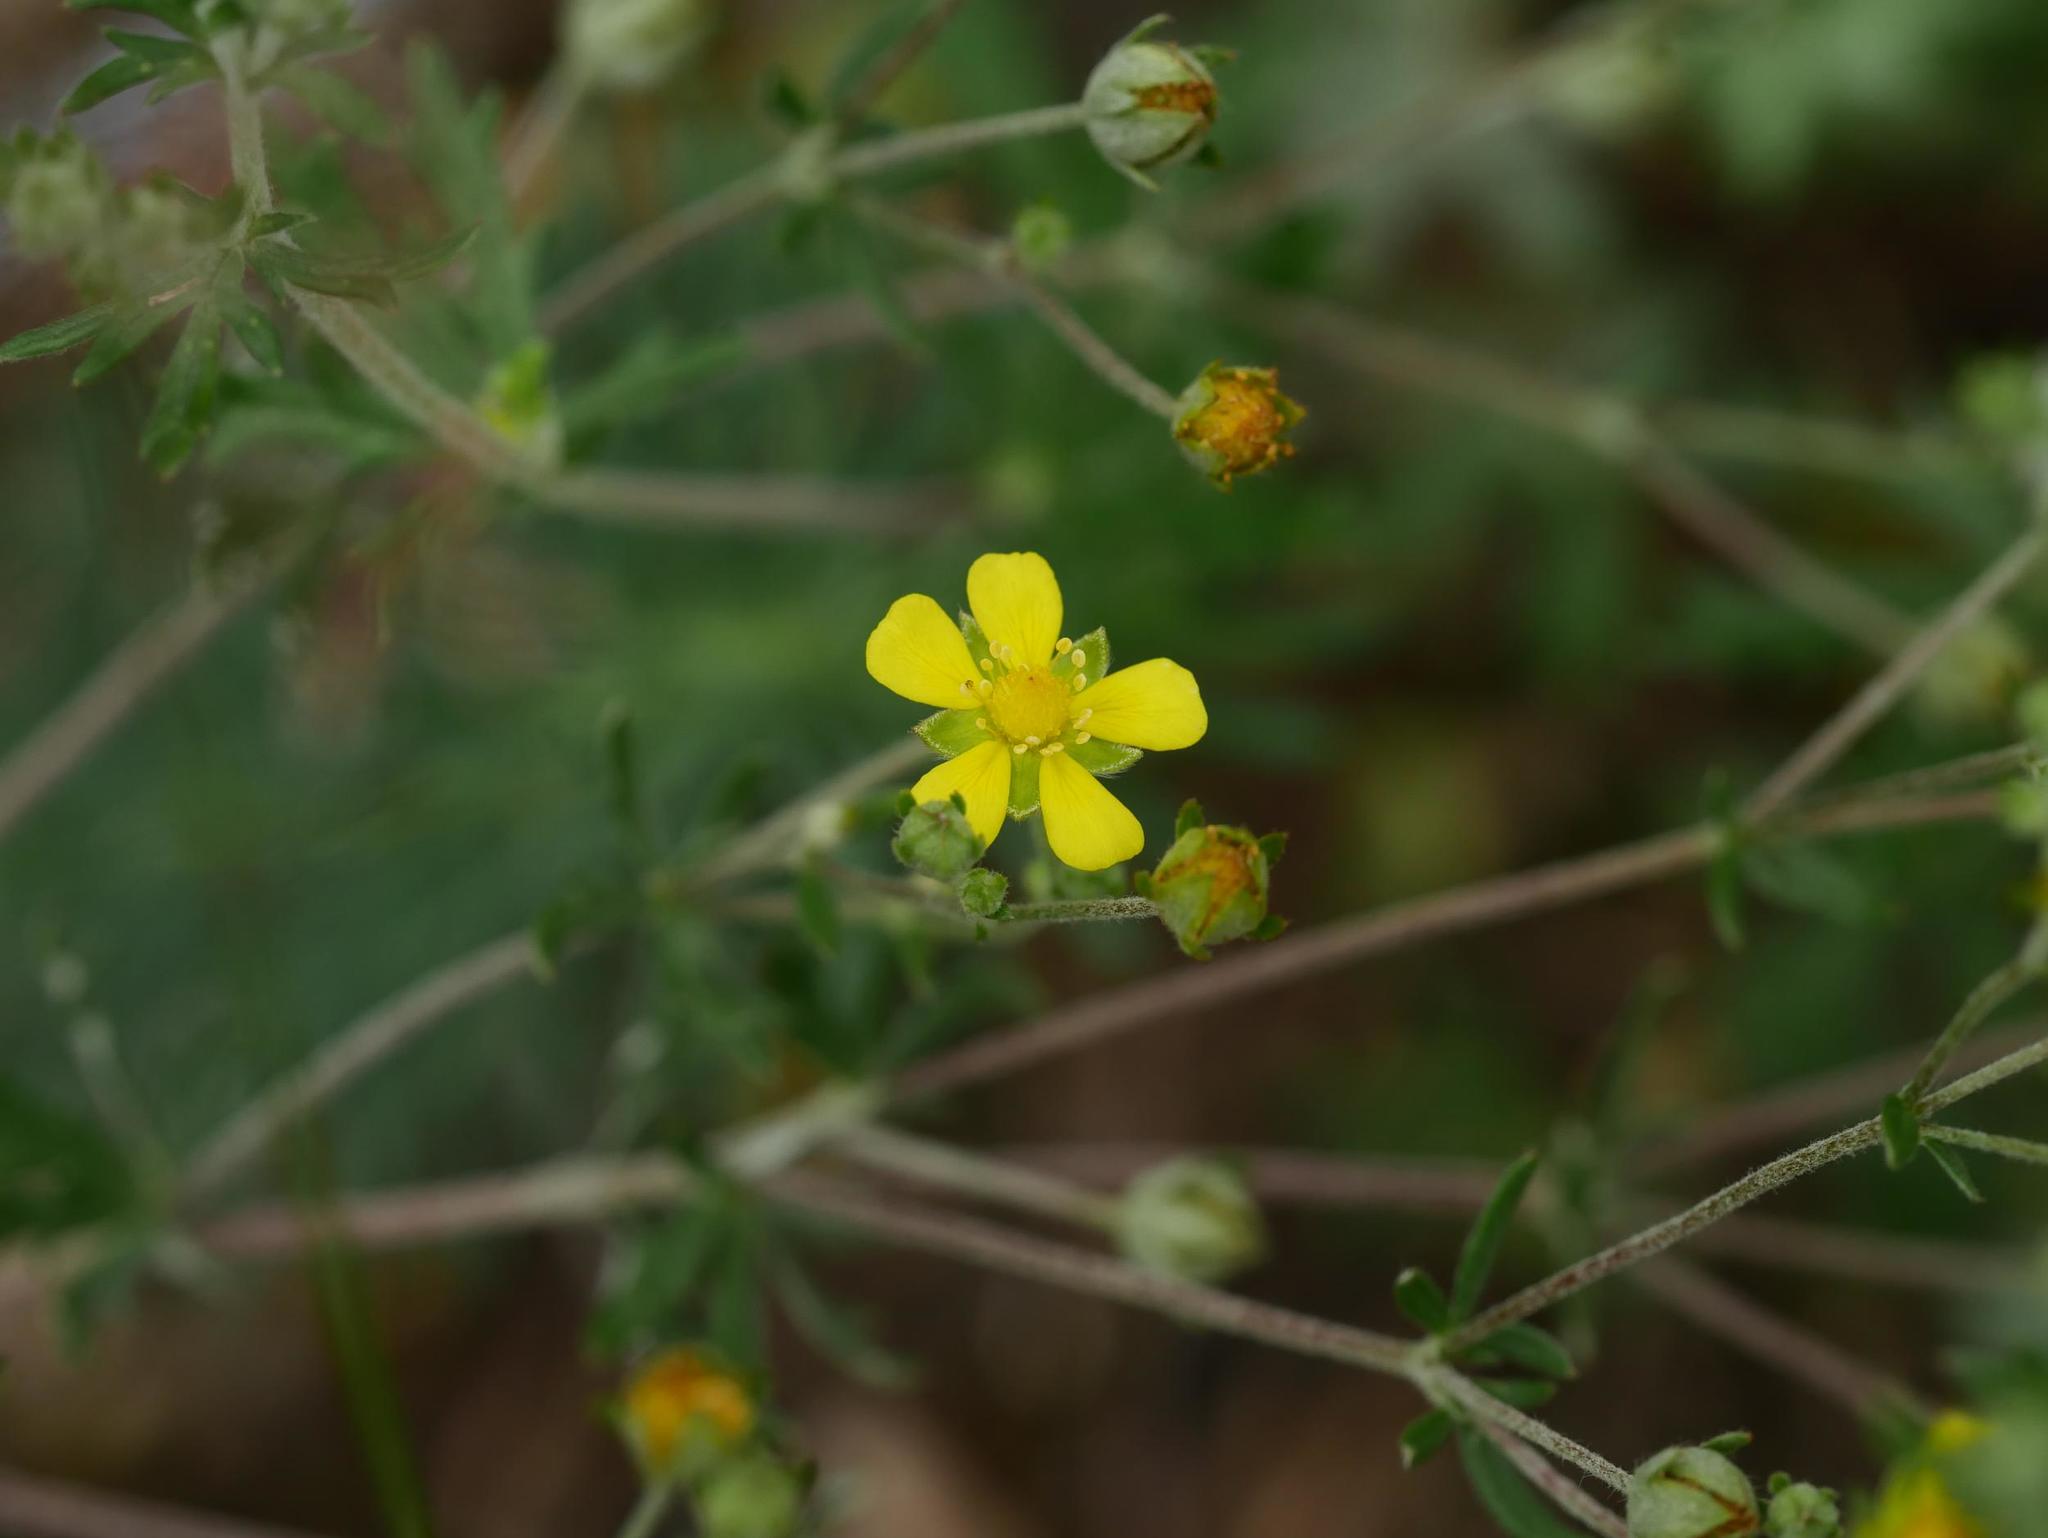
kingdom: Plantae
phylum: Tracheophyta
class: Magnoliopsida
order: Rosales
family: Rosaceae
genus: Potentilla
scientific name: Potentilla argentea
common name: Hoary cinquefoil
